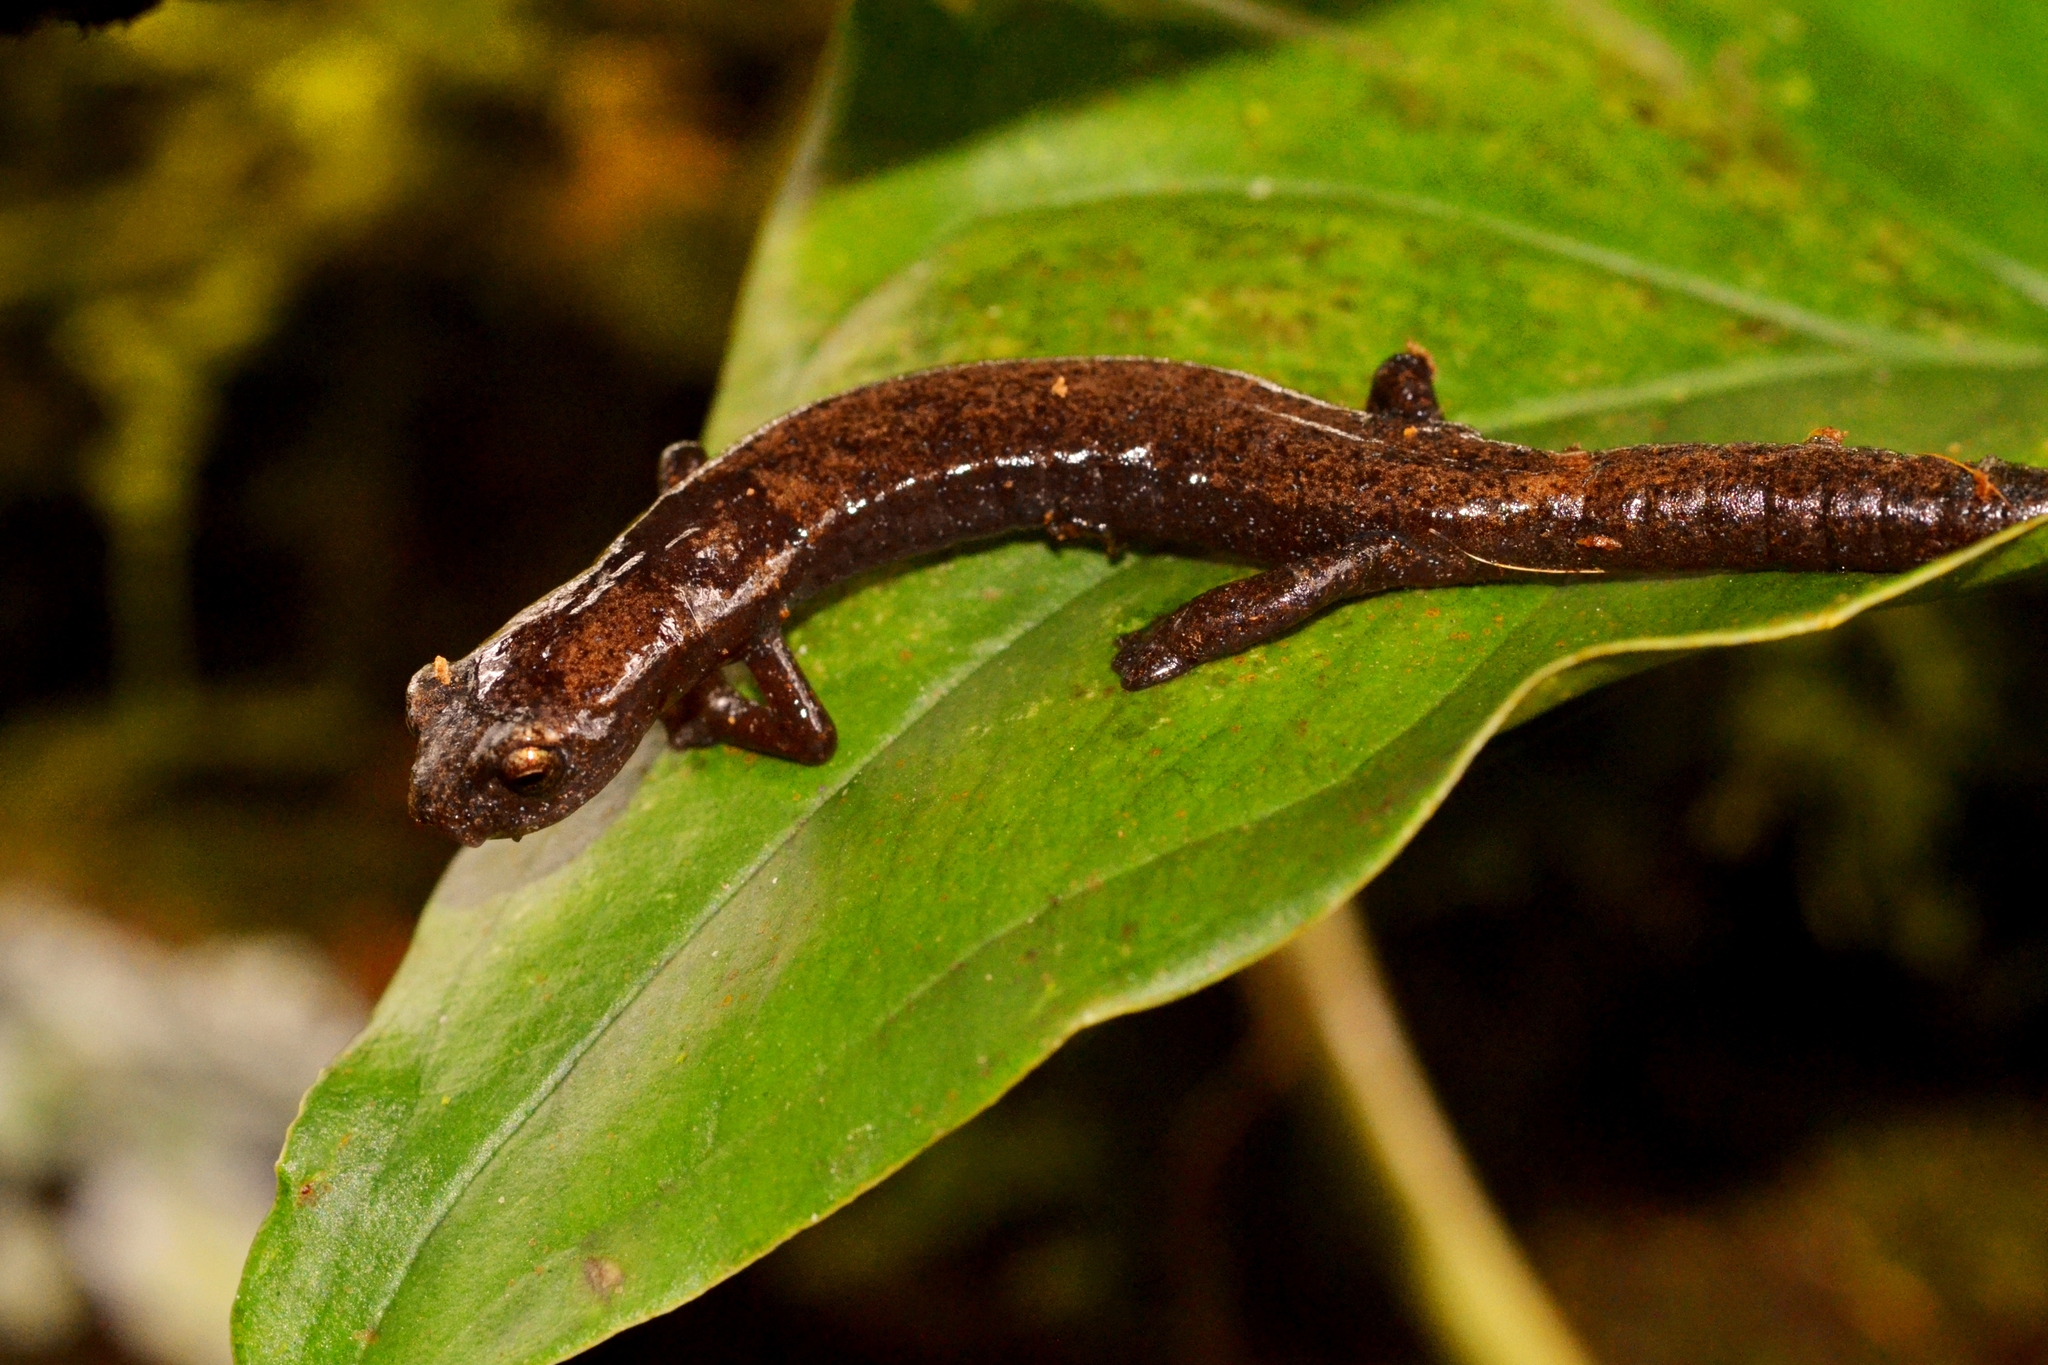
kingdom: Animalia
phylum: Chordata
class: Amphibia
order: Caudata
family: Plethodontidae
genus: Bolitoglossa
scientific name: Bolitoglossa rufescens
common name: Common dwarf salamander
